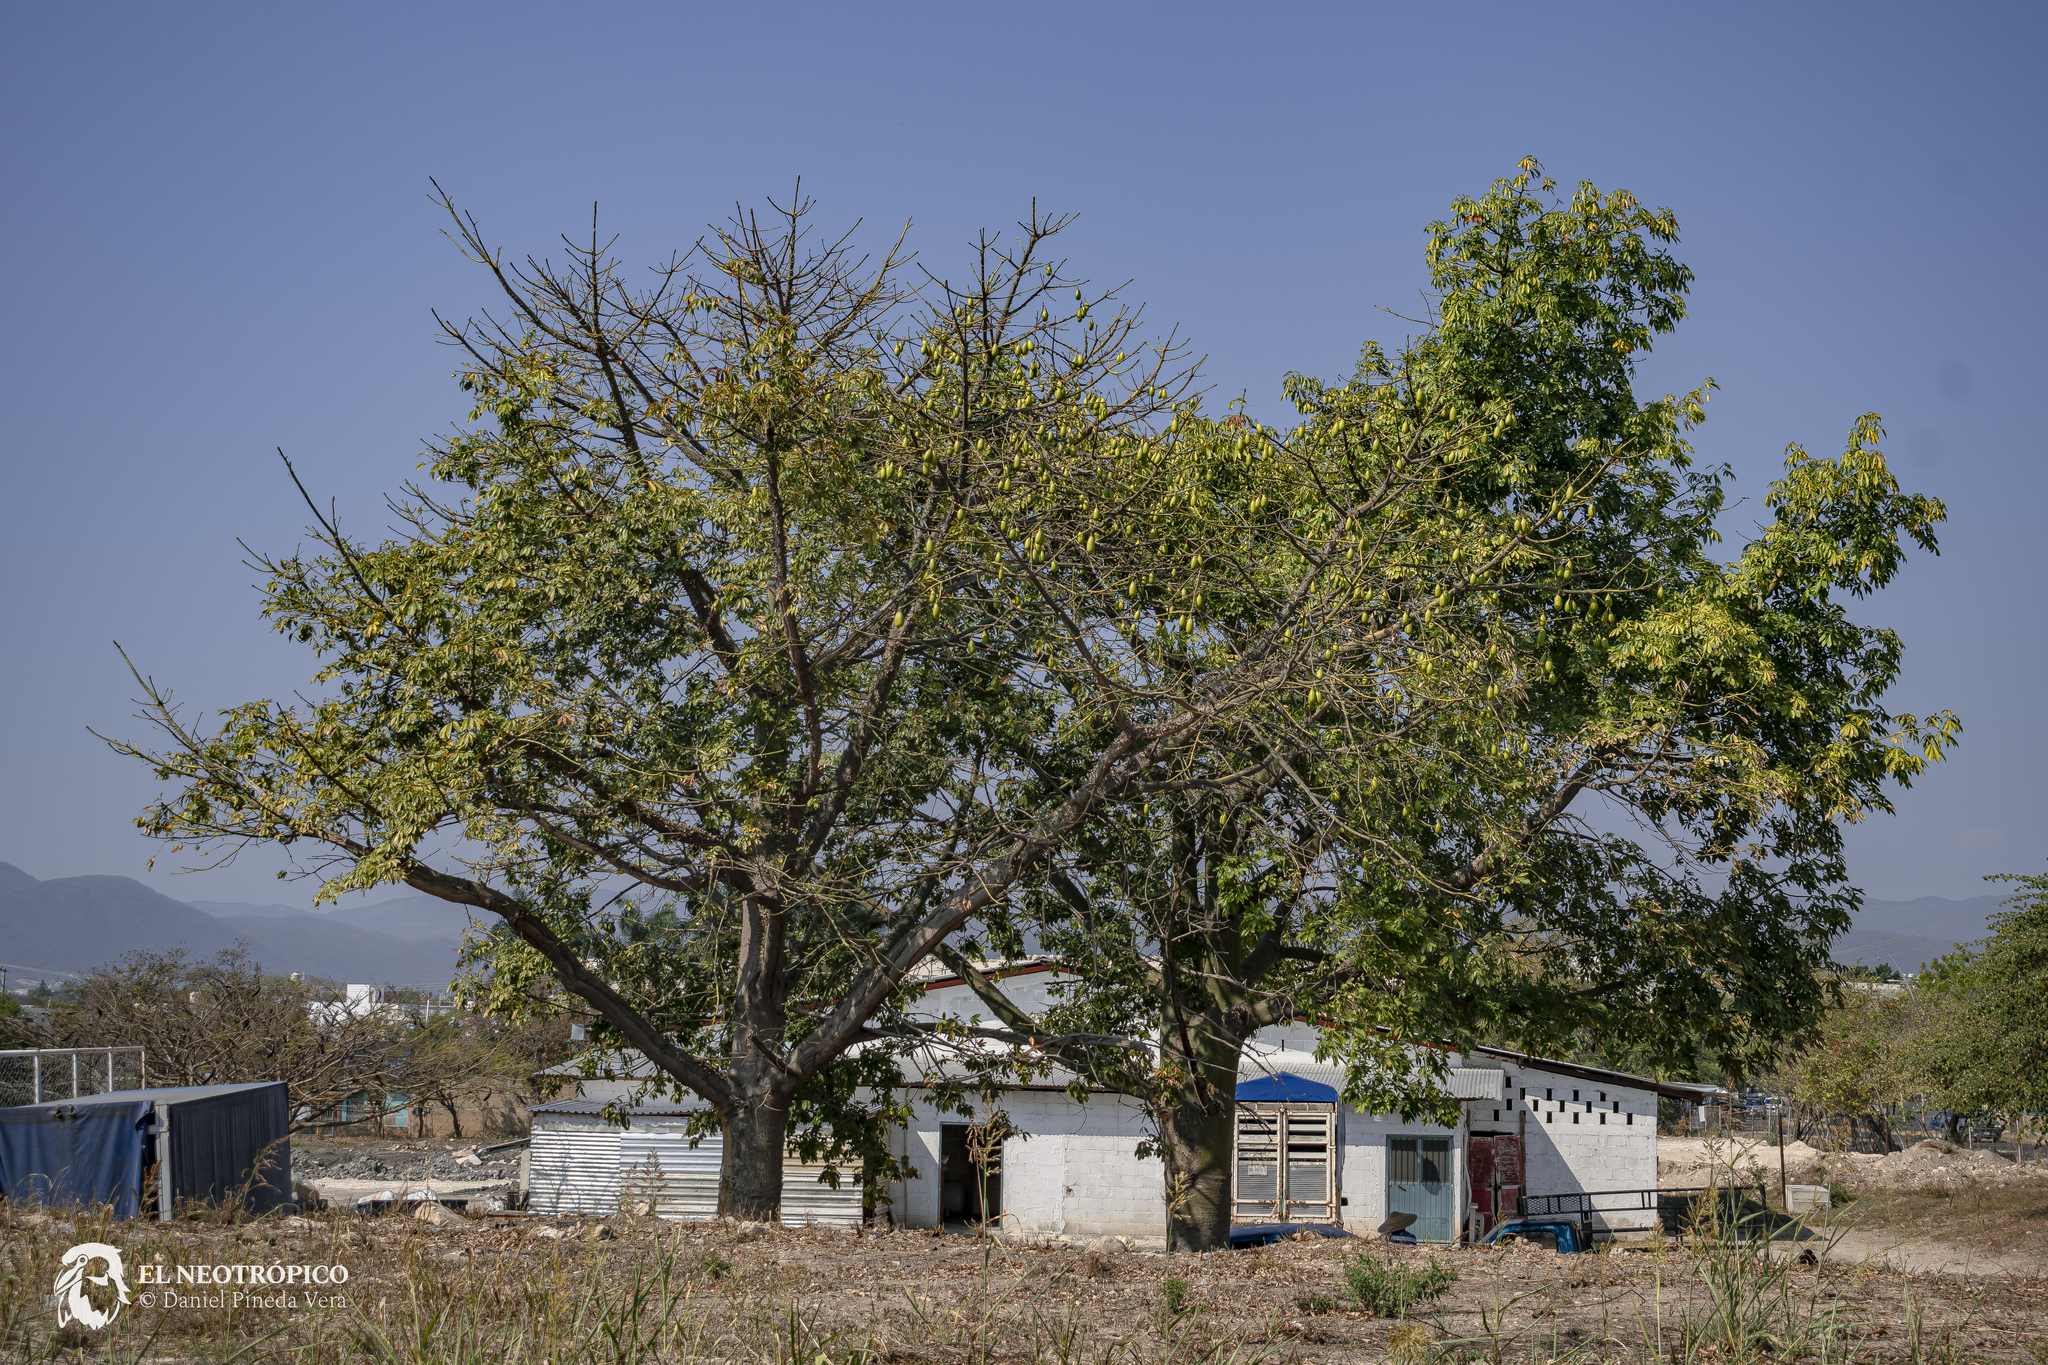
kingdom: Plantae
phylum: Tracheophyta
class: Magnoliopsida
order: Malvales
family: Malvaceae
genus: Ceiba
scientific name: Ceiba pentandra
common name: Kapok
